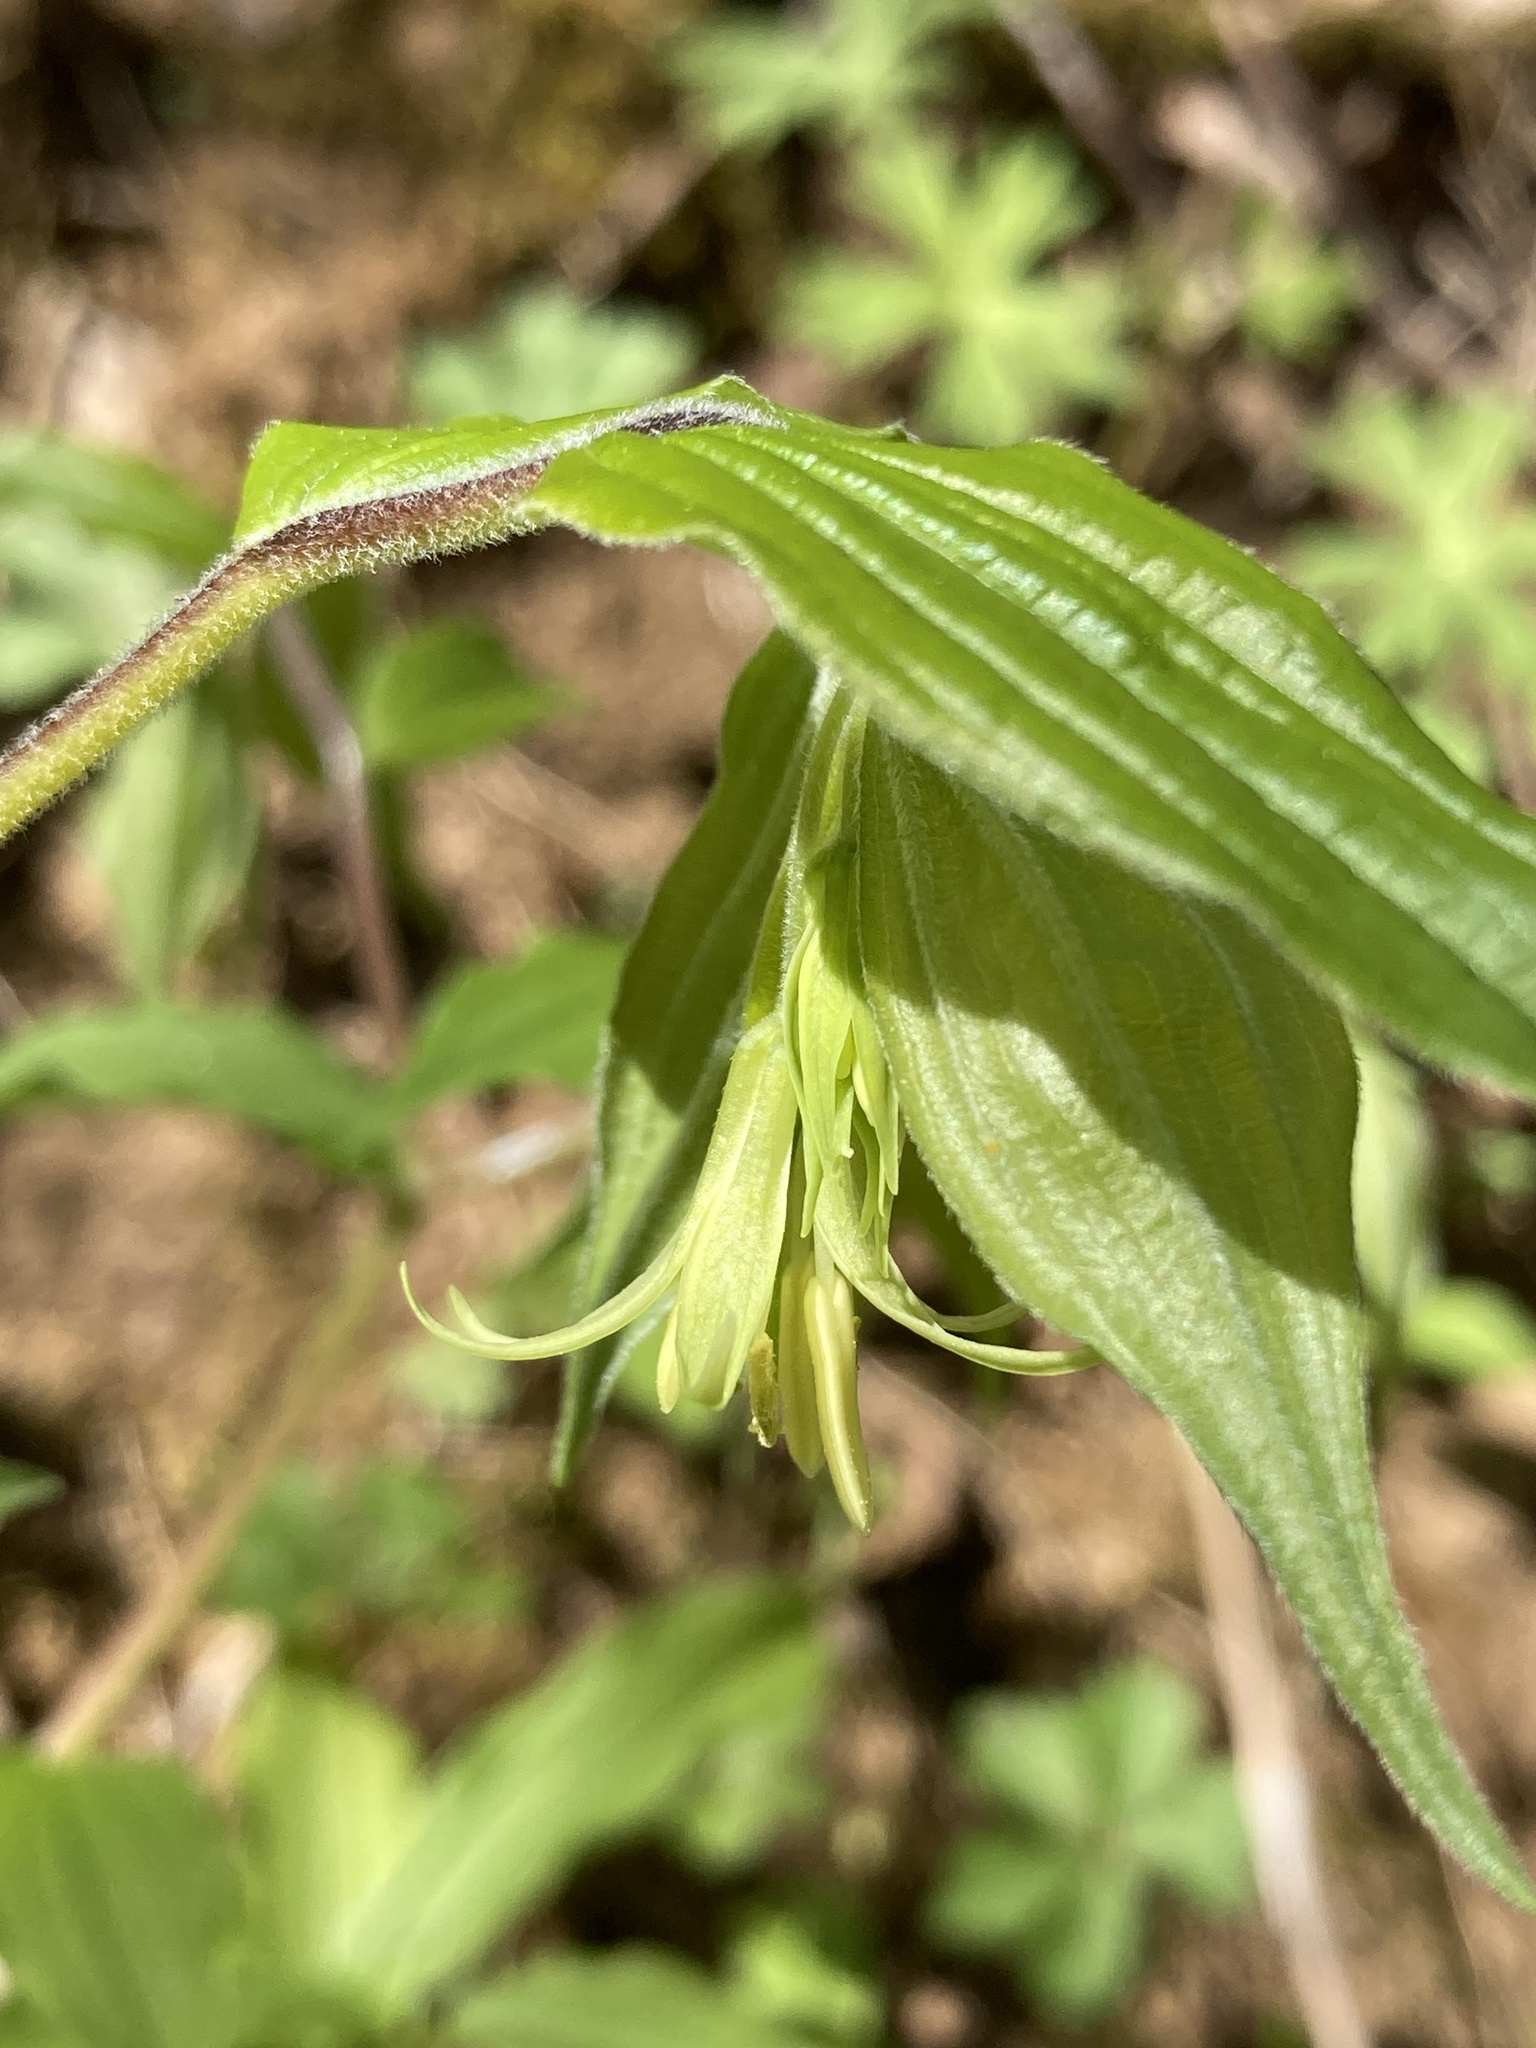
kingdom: Plantae
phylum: Tracheophyta
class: Liliopsida
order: Liliales
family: Liliaceae
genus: Prosartes
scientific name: Prosartes lanuginosa
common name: Hairy mandarin
